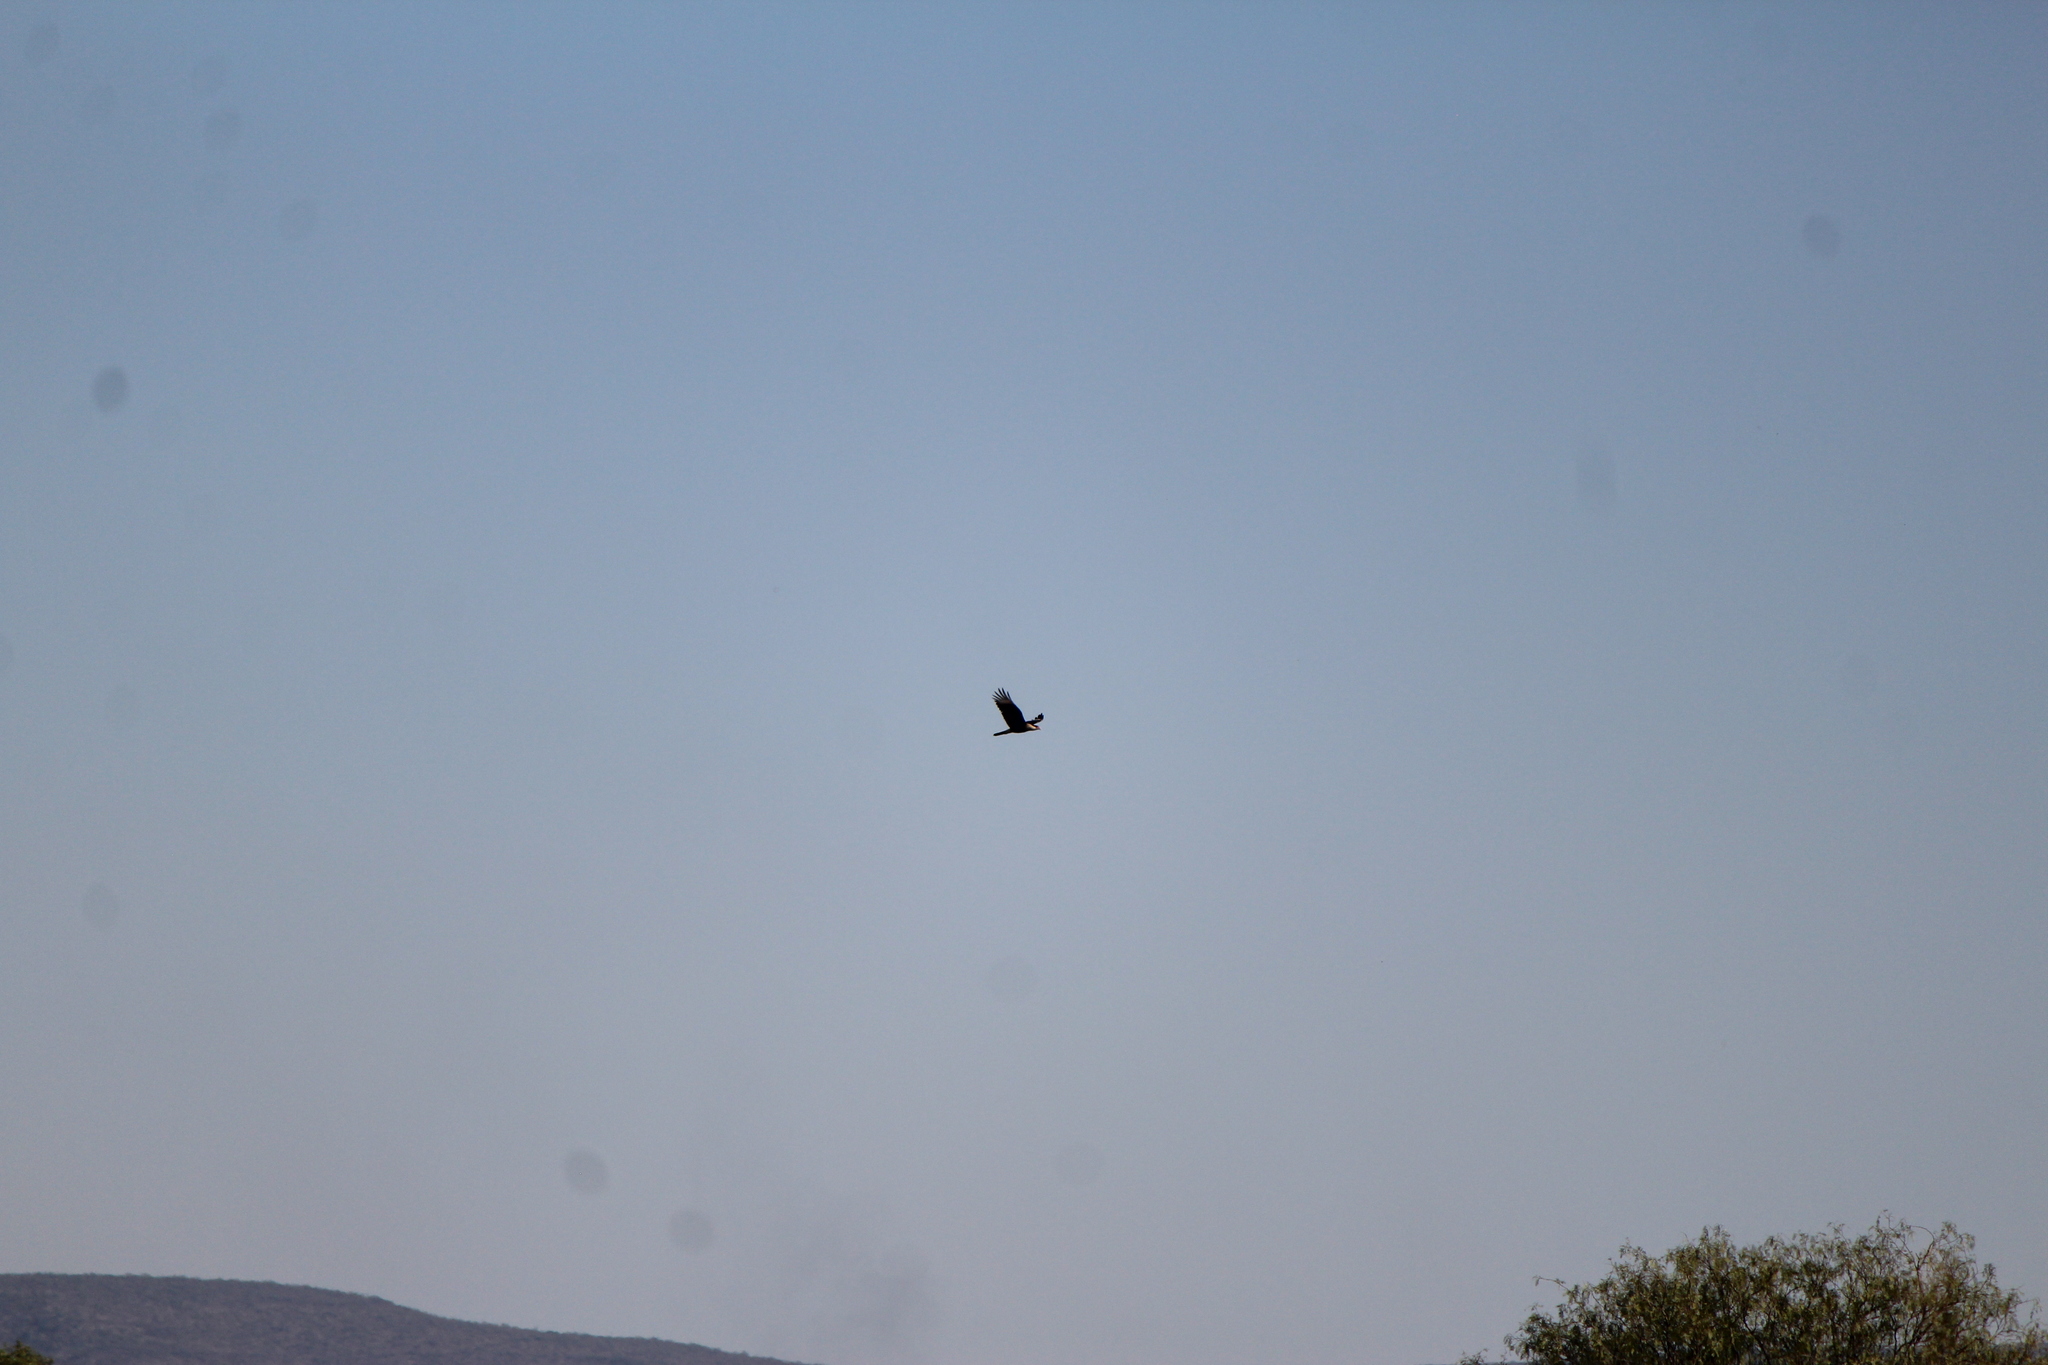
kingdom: Animalia
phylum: Chordata
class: Aves
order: Falconiformes
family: Falconidae
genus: Caracara
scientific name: Caracara plancus
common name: Southern caracara
